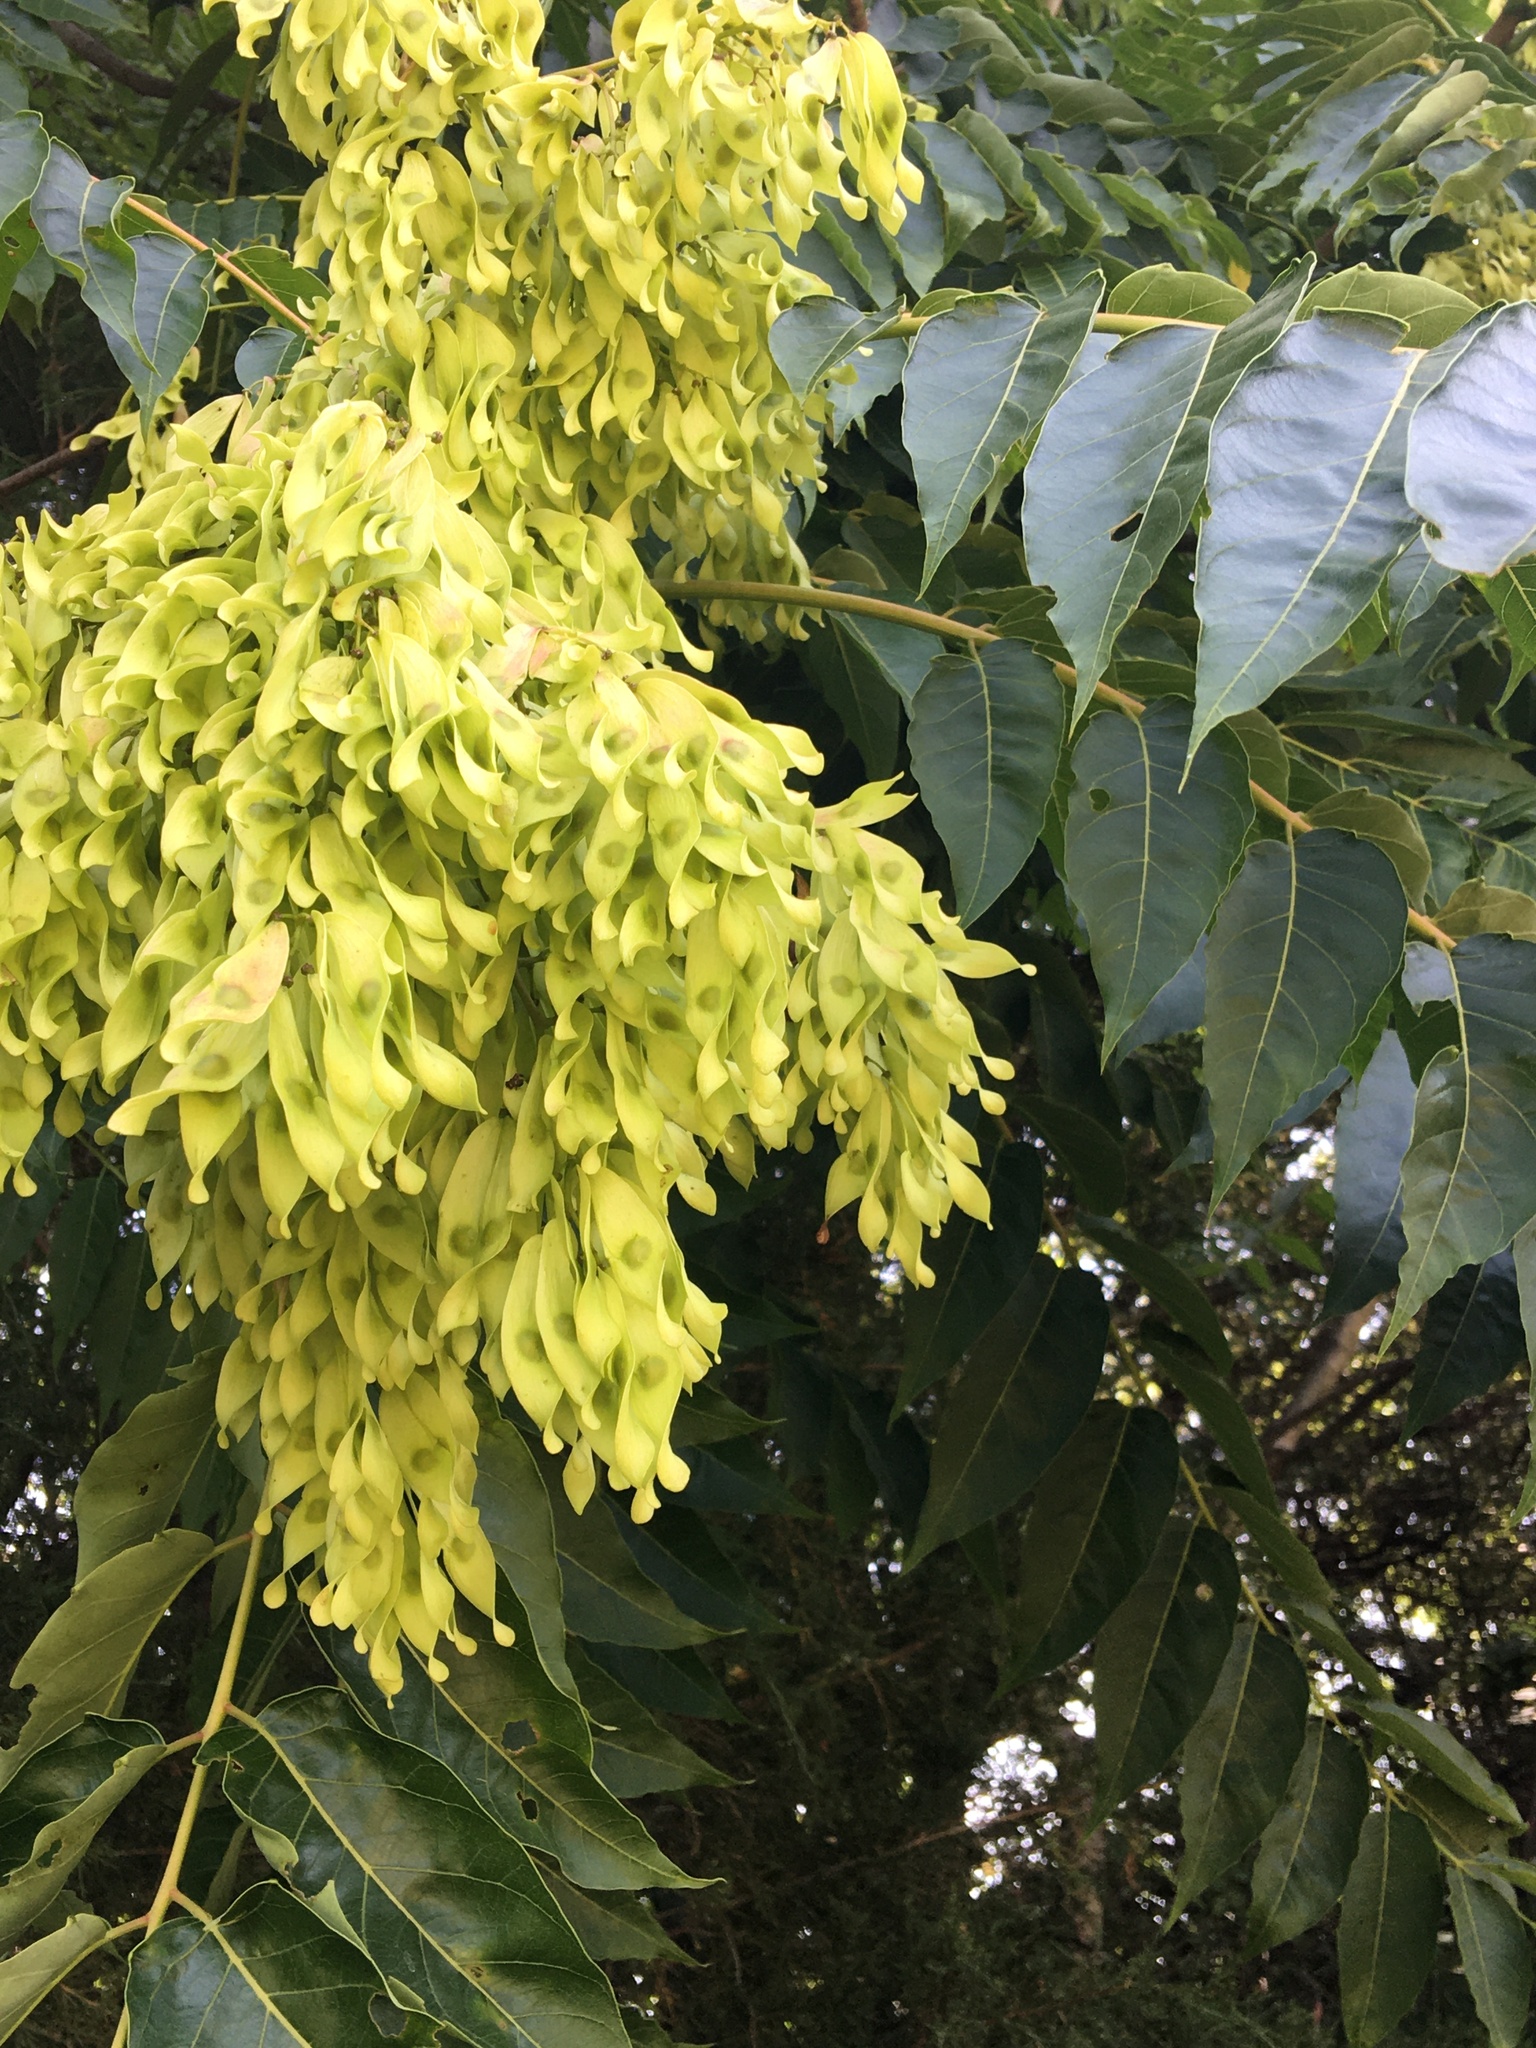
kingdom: Plantae
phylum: Tracheophyta
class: Magnoliopsida
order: Sapindales
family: Simaroubaceae
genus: Ailanthus
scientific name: Ailanthus altissima
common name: Tree-of-heaven
